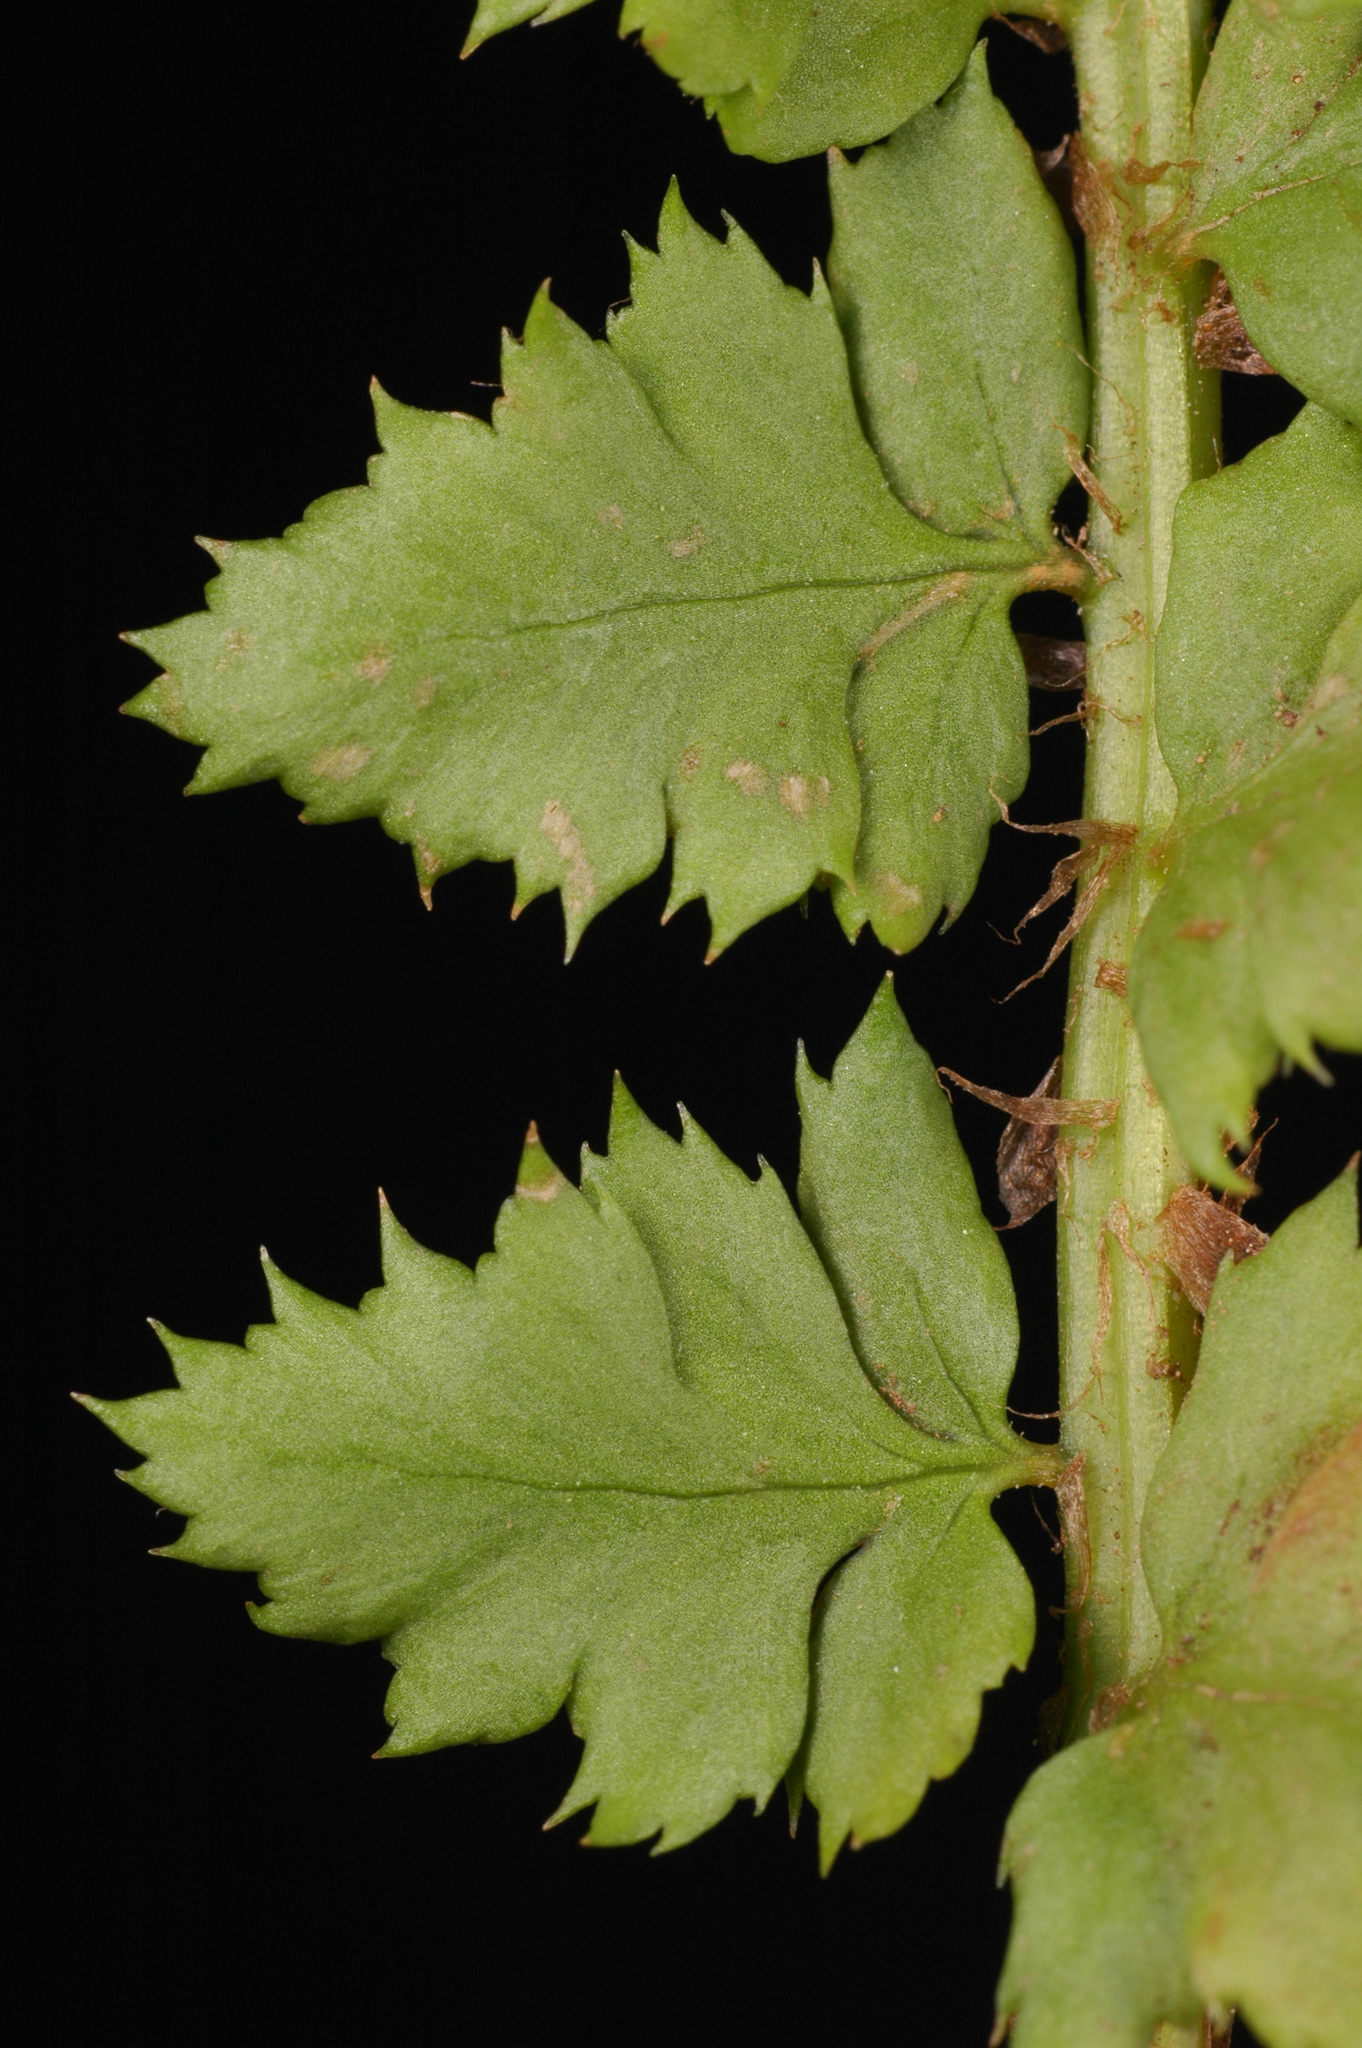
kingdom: Plantae
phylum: Tracheophyta
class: Polypodiopsida
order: Polypodiales
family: Dryopteridaceae
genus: Polystichum
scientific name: Polystichum kruckebergii
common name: Kruckeberg's holly fern
